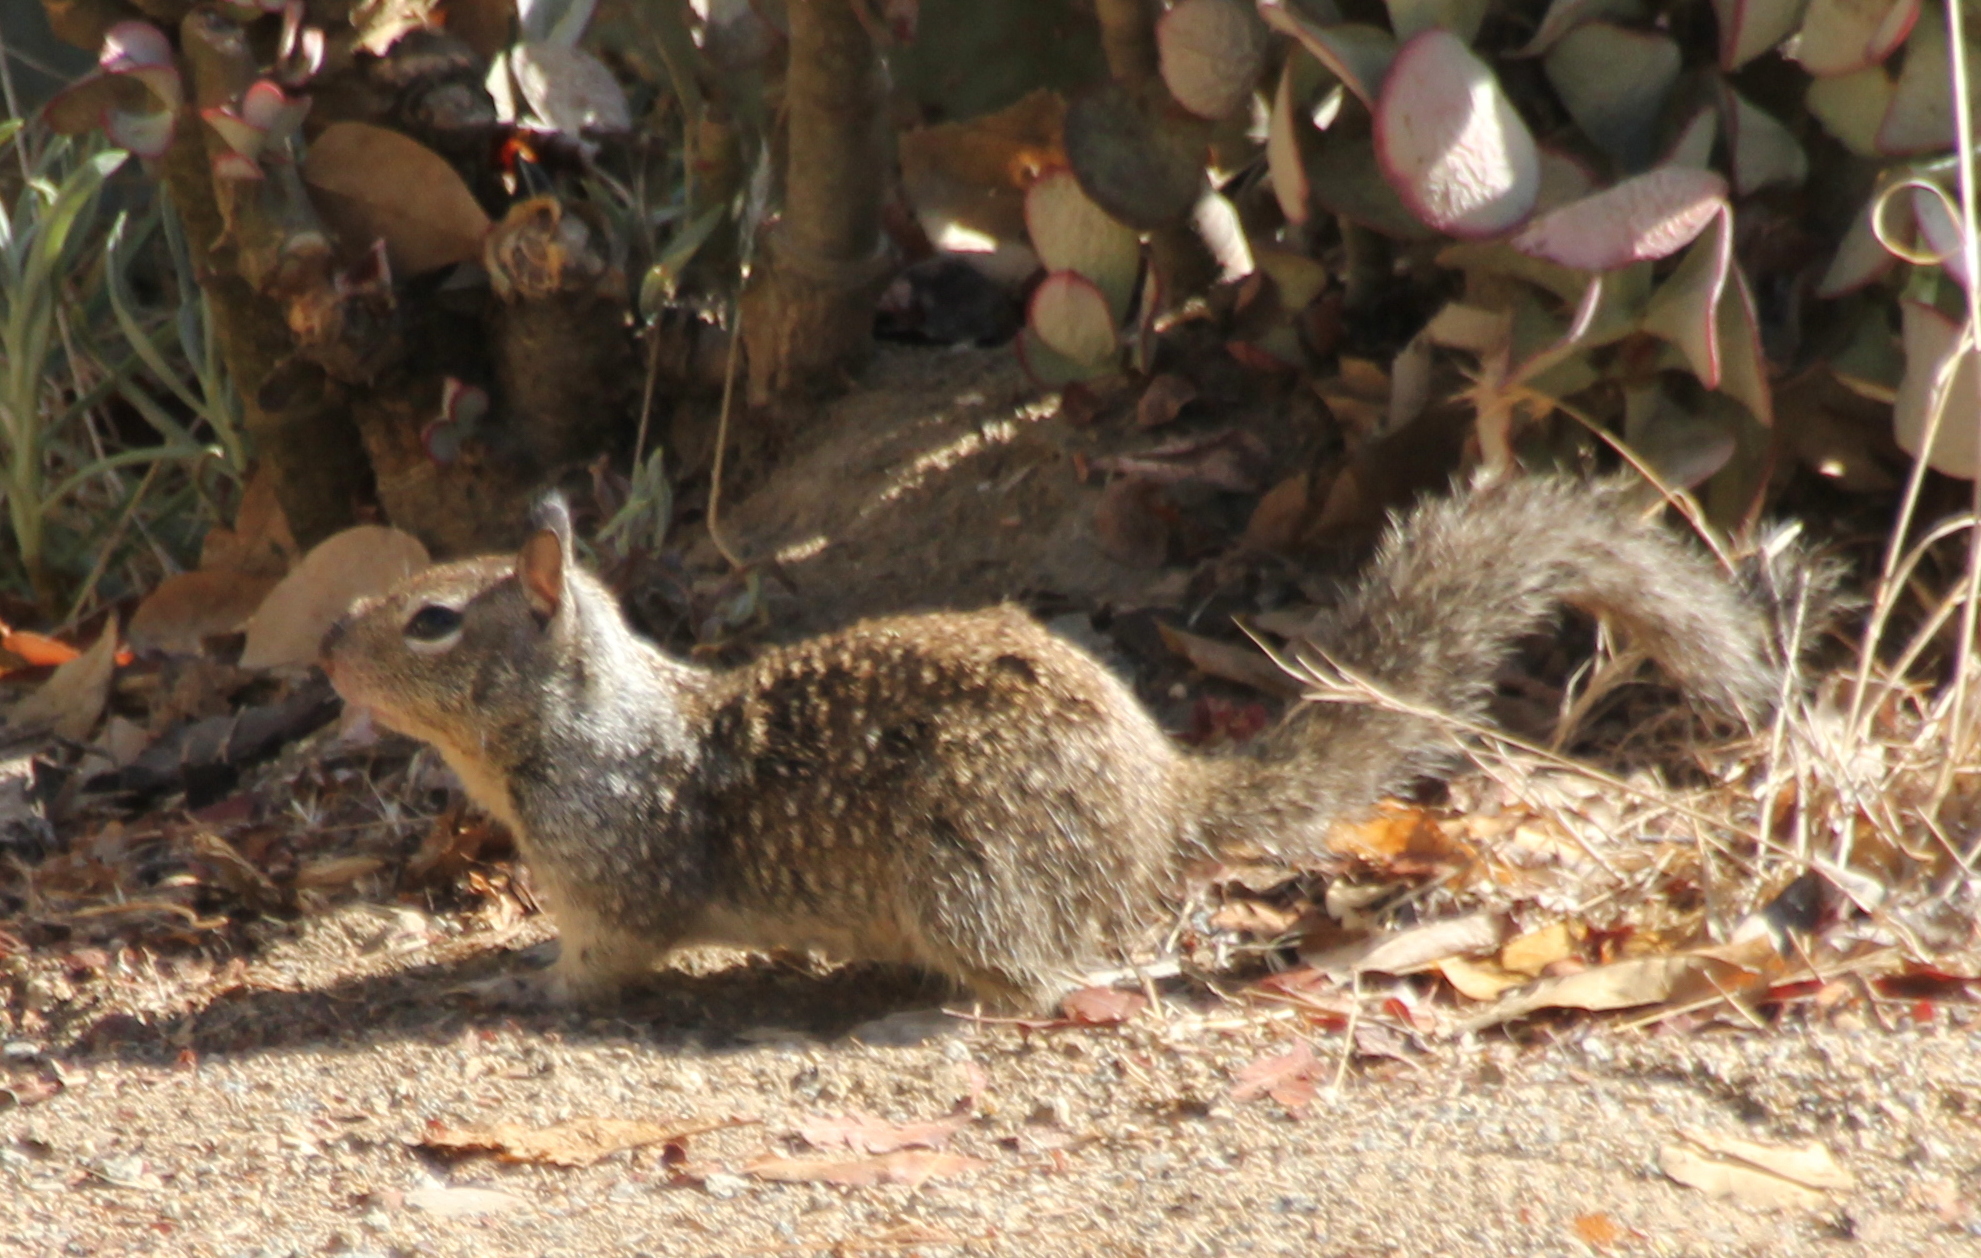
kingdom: Animalia
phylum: Chordata
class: Mammalia
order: Rodentia
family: Sciuridae
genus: Otospermophilus
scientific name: Otospermophilus beecheyi
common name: California ground squirrel
